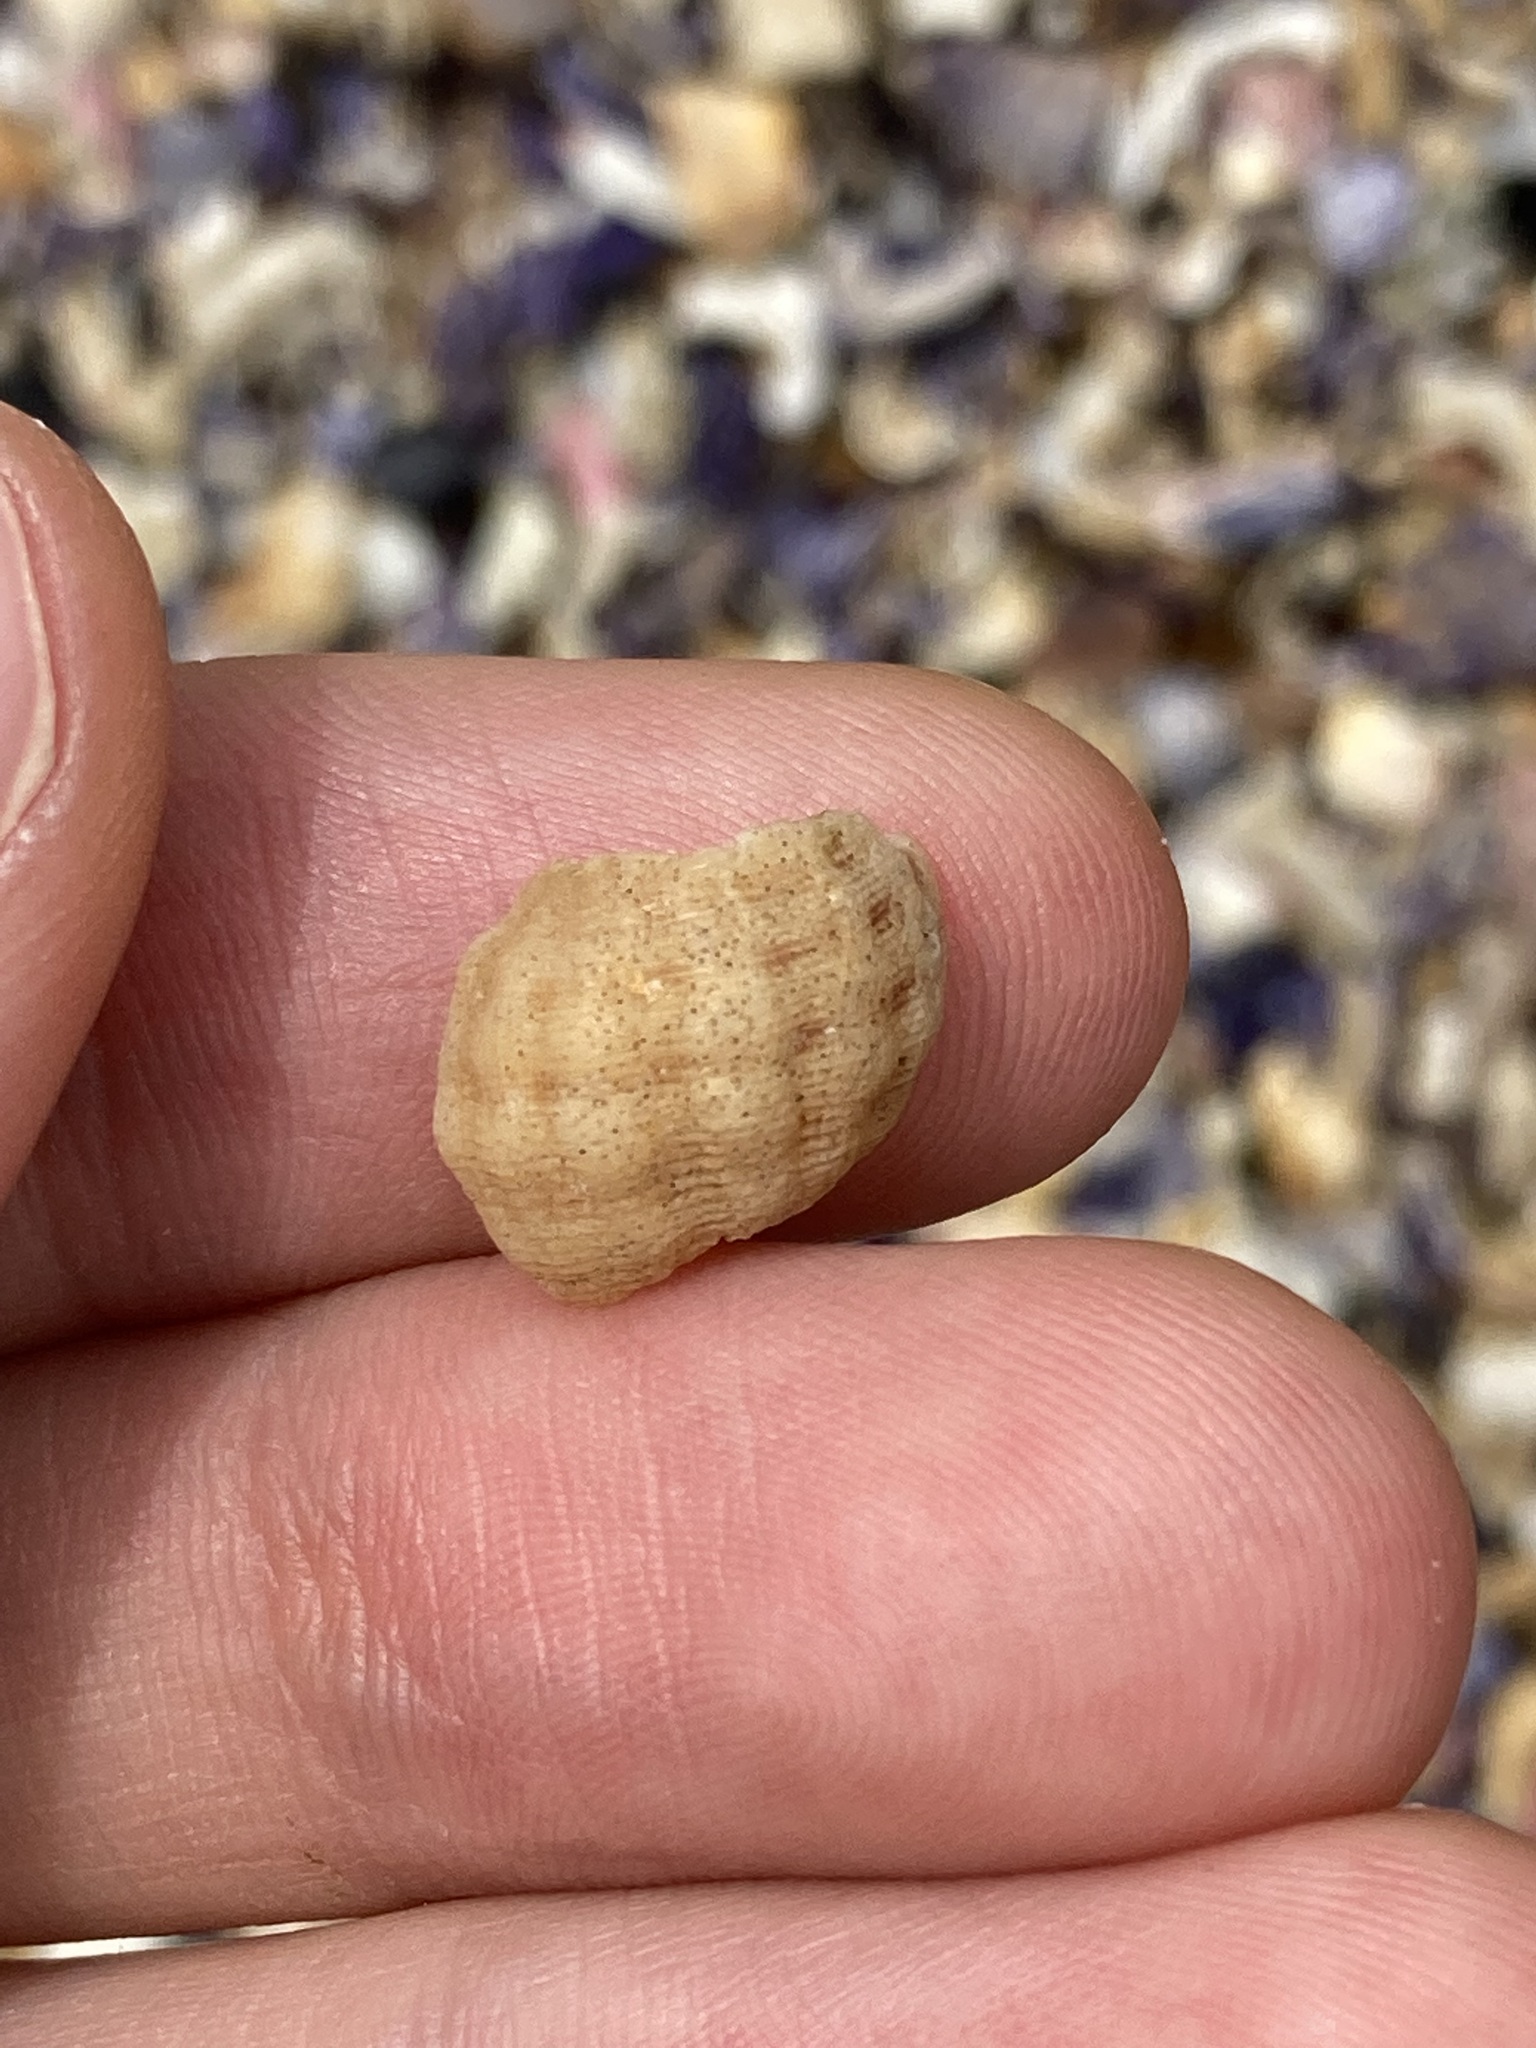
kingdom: Animalia
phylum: Mollusca
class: Gastropoda
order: Neogastropoda
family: Muricidae
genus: Agnewia
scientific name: Agnewia tritoniformis
